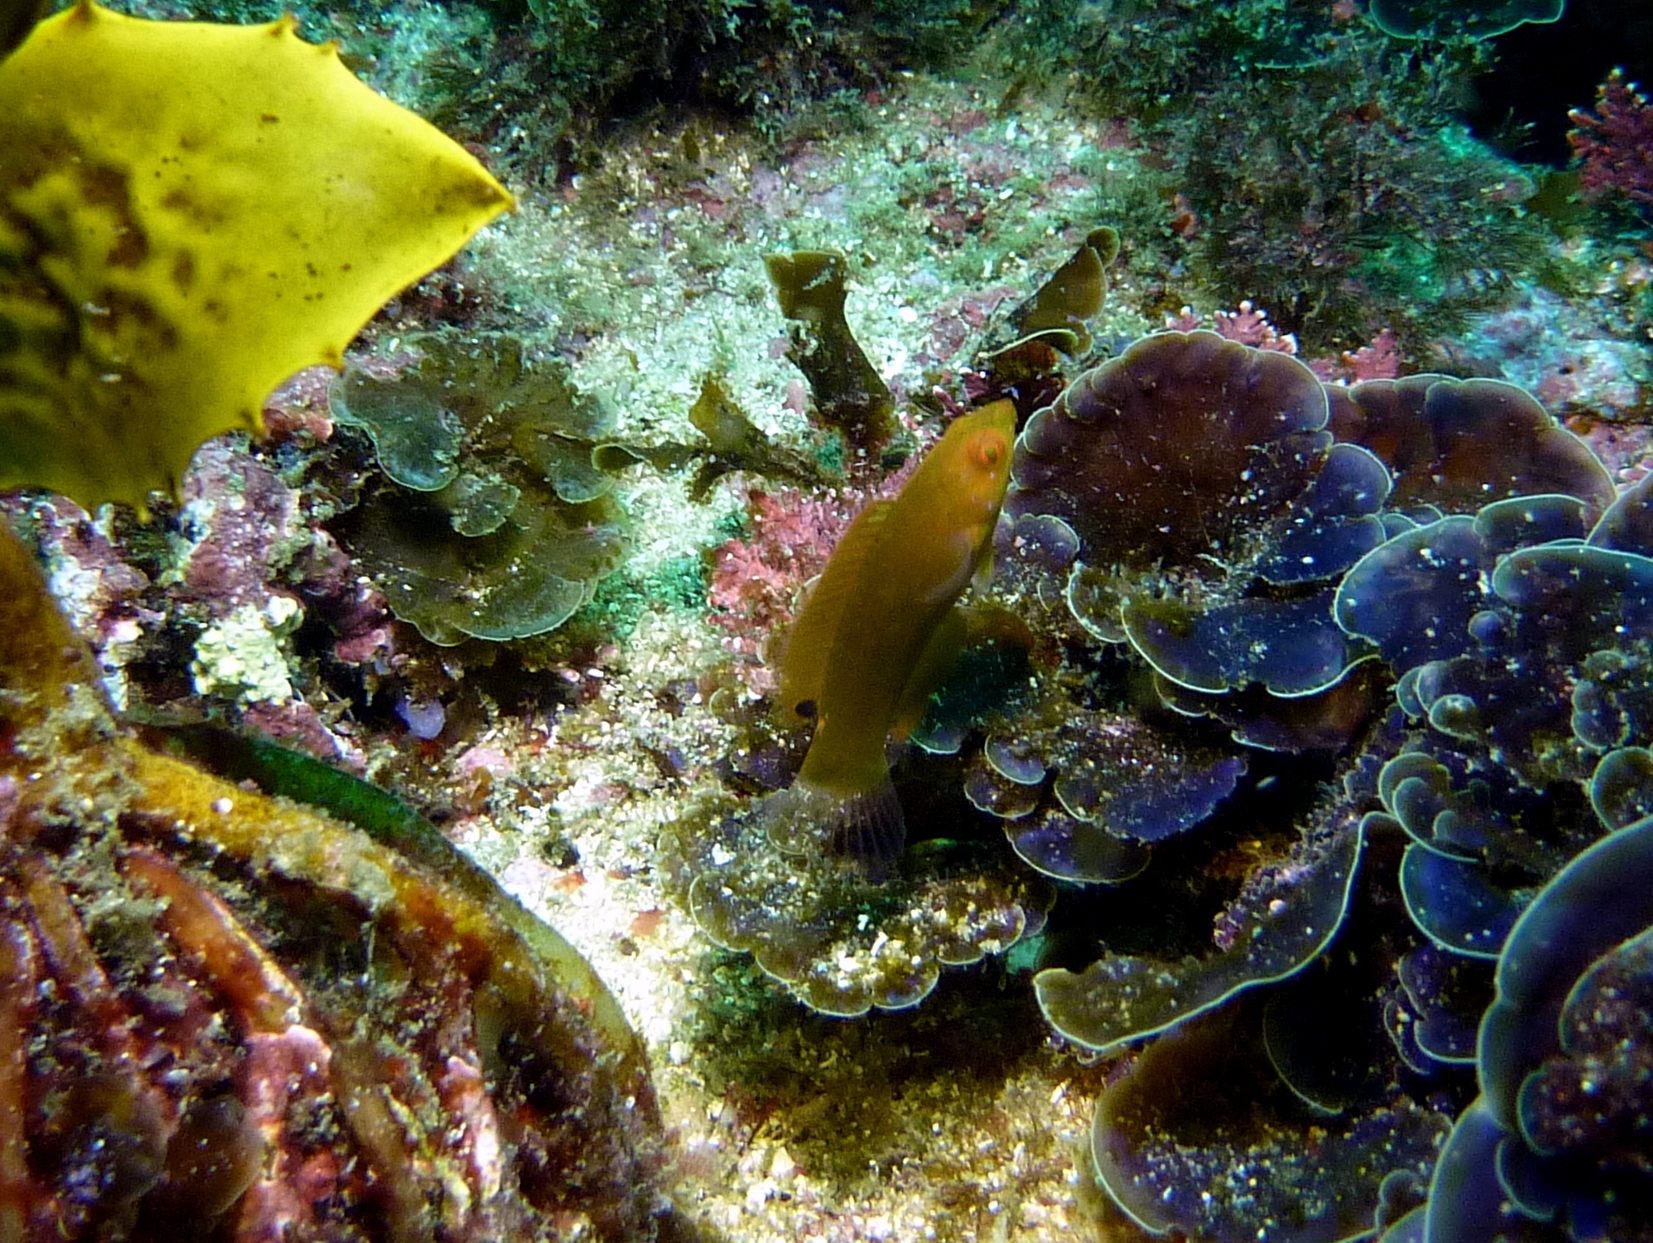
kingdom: Animalia
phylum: Chordata
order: Perciformes
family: Labridae
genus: Pictilabrus
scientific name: Pictilabrus laticlavius
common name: Patrician wrasse
